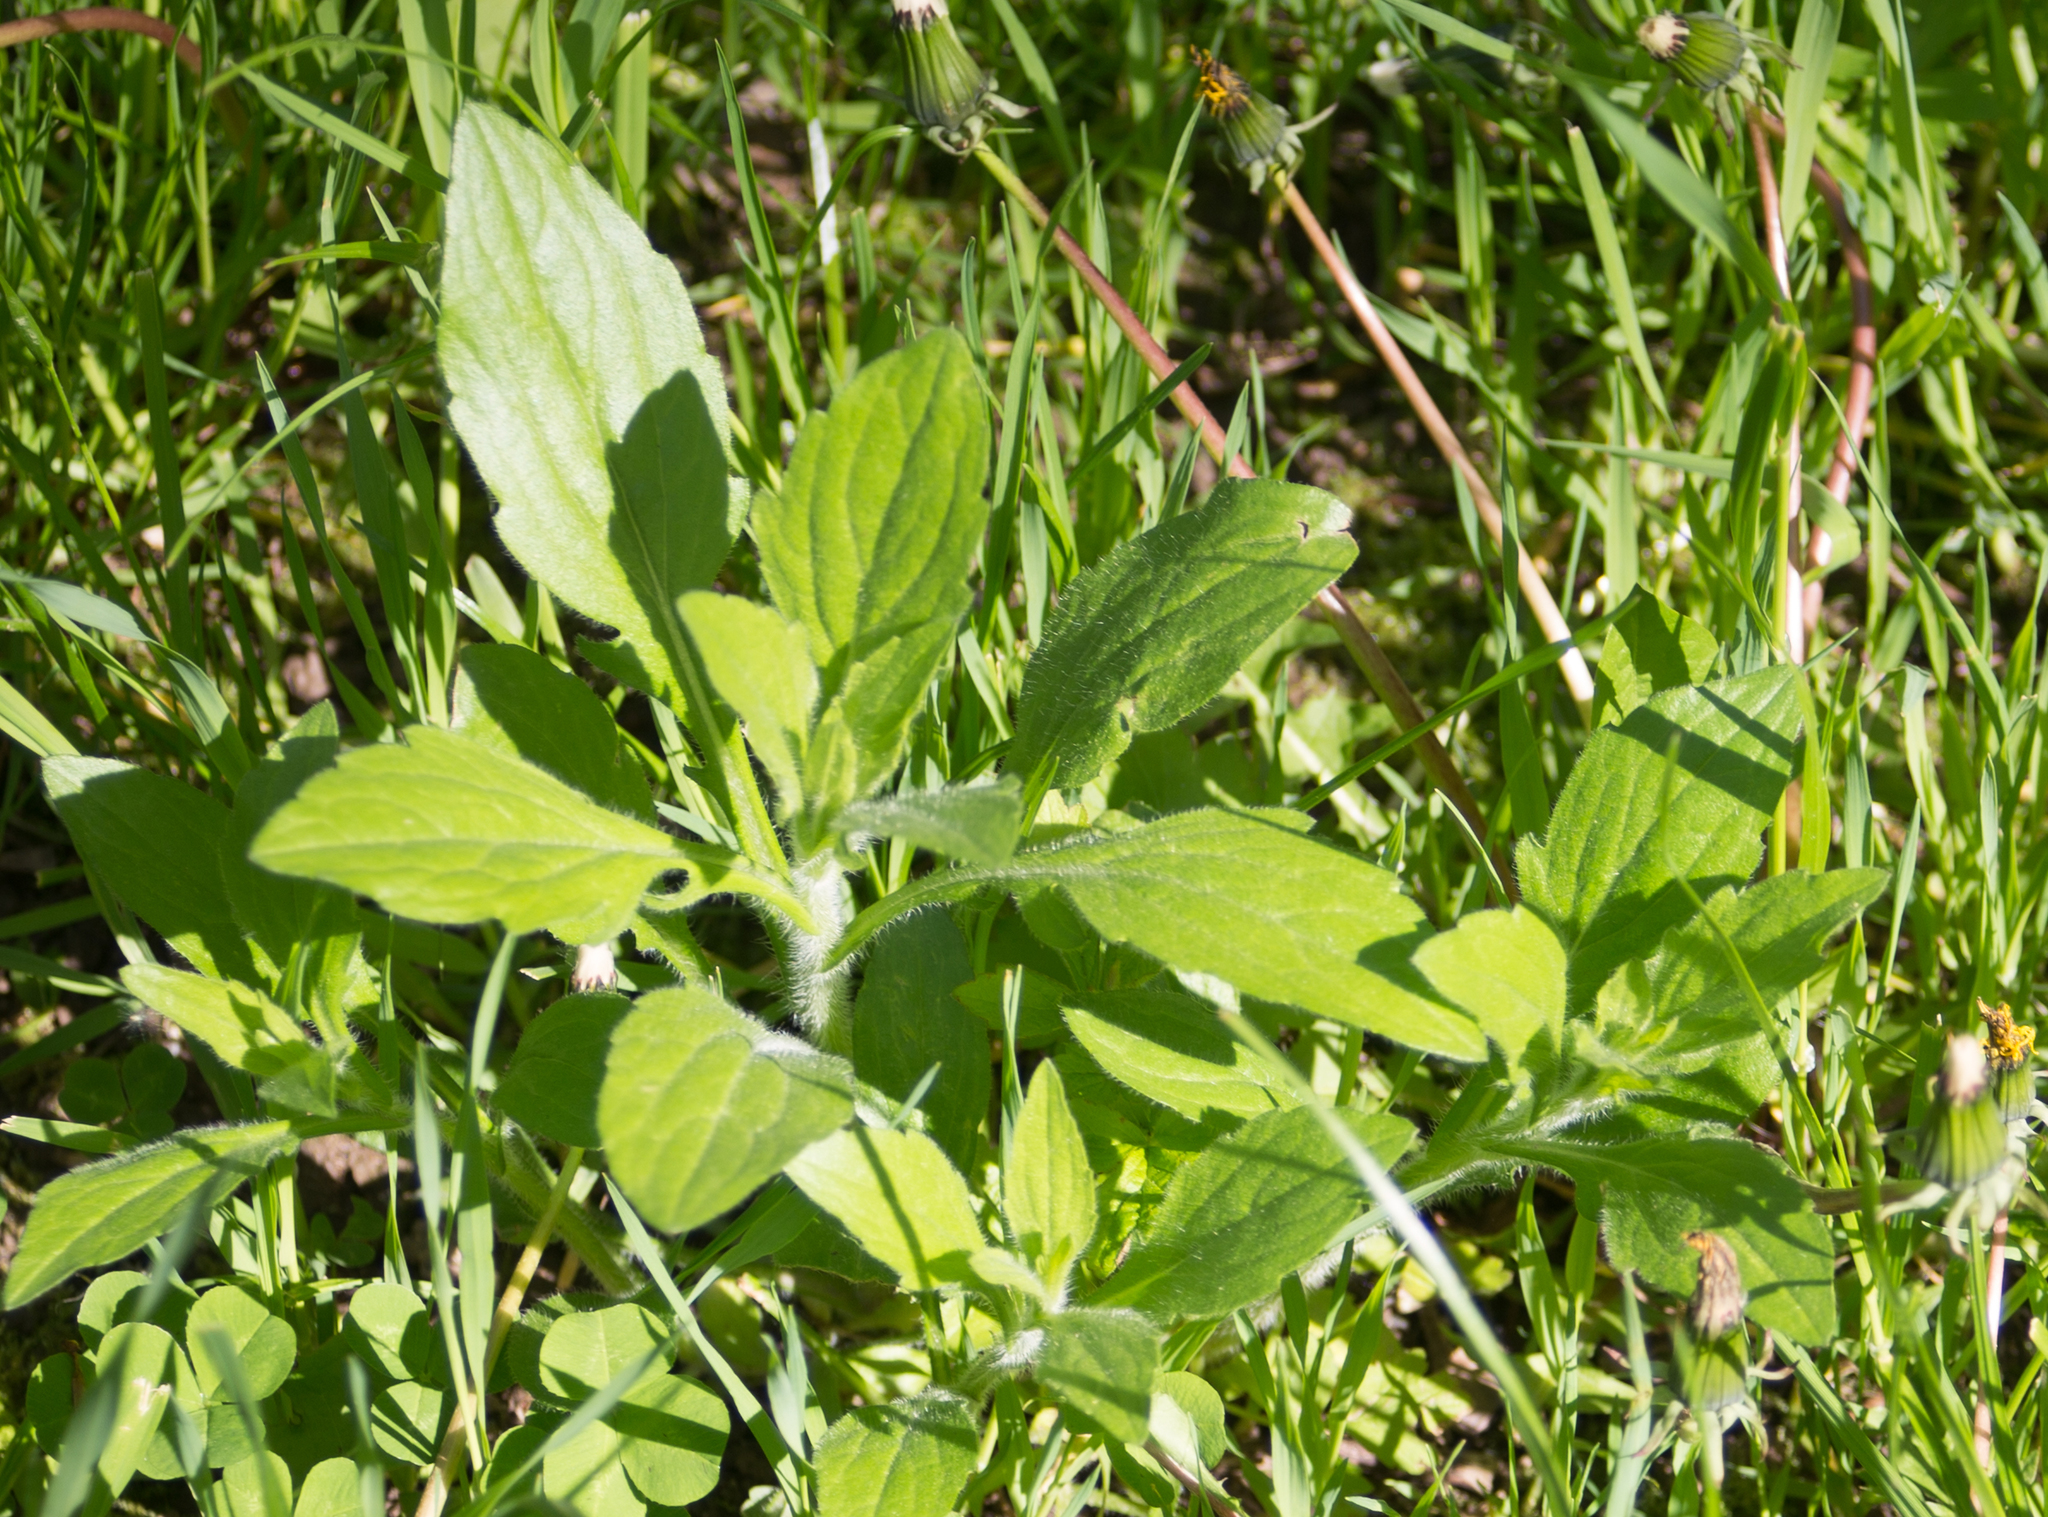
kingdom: Plantae
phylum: Tracheophyta
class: Magnoliopsida
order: Asterales
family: Asteraceae
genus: Erigeron
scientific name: Erigeron annuus
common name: Tall fleabane
